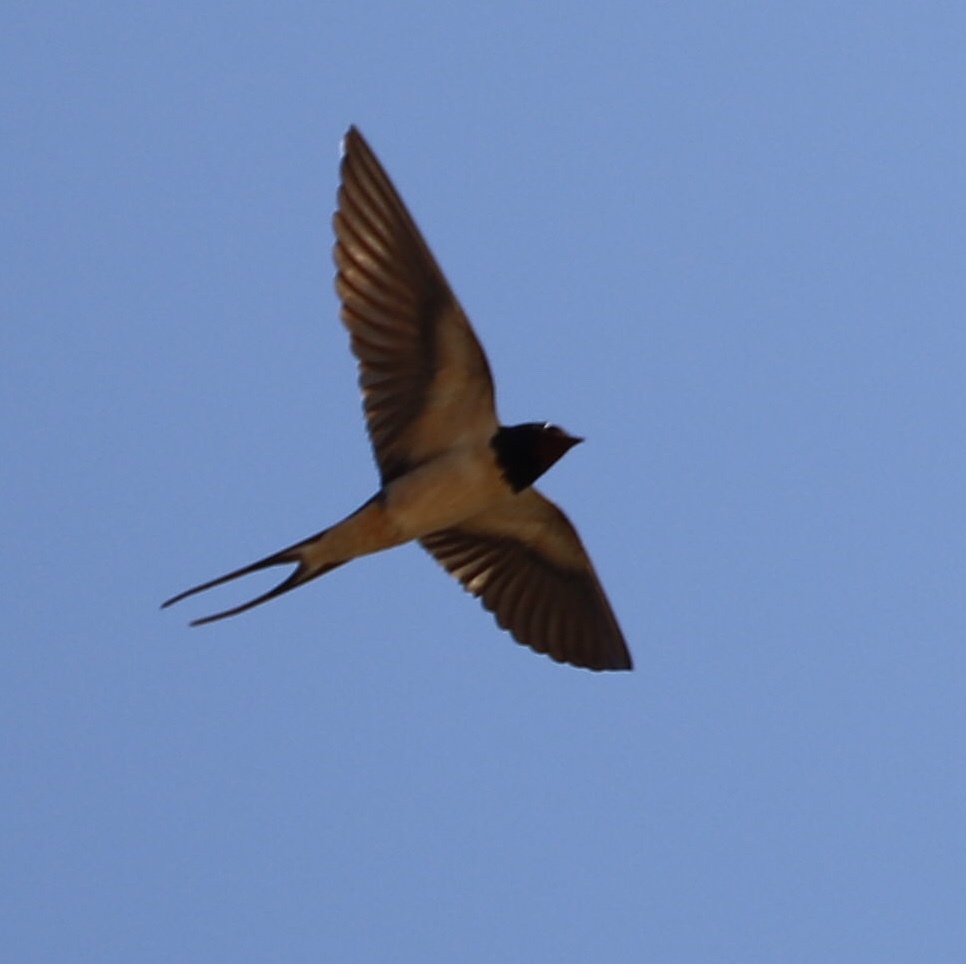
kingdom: Animalia
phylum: Chordata
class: Aves
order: Passeriformes
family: Hirundinidae
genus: Hirundo
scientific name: Hirundo rustica
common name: Barn swallow
